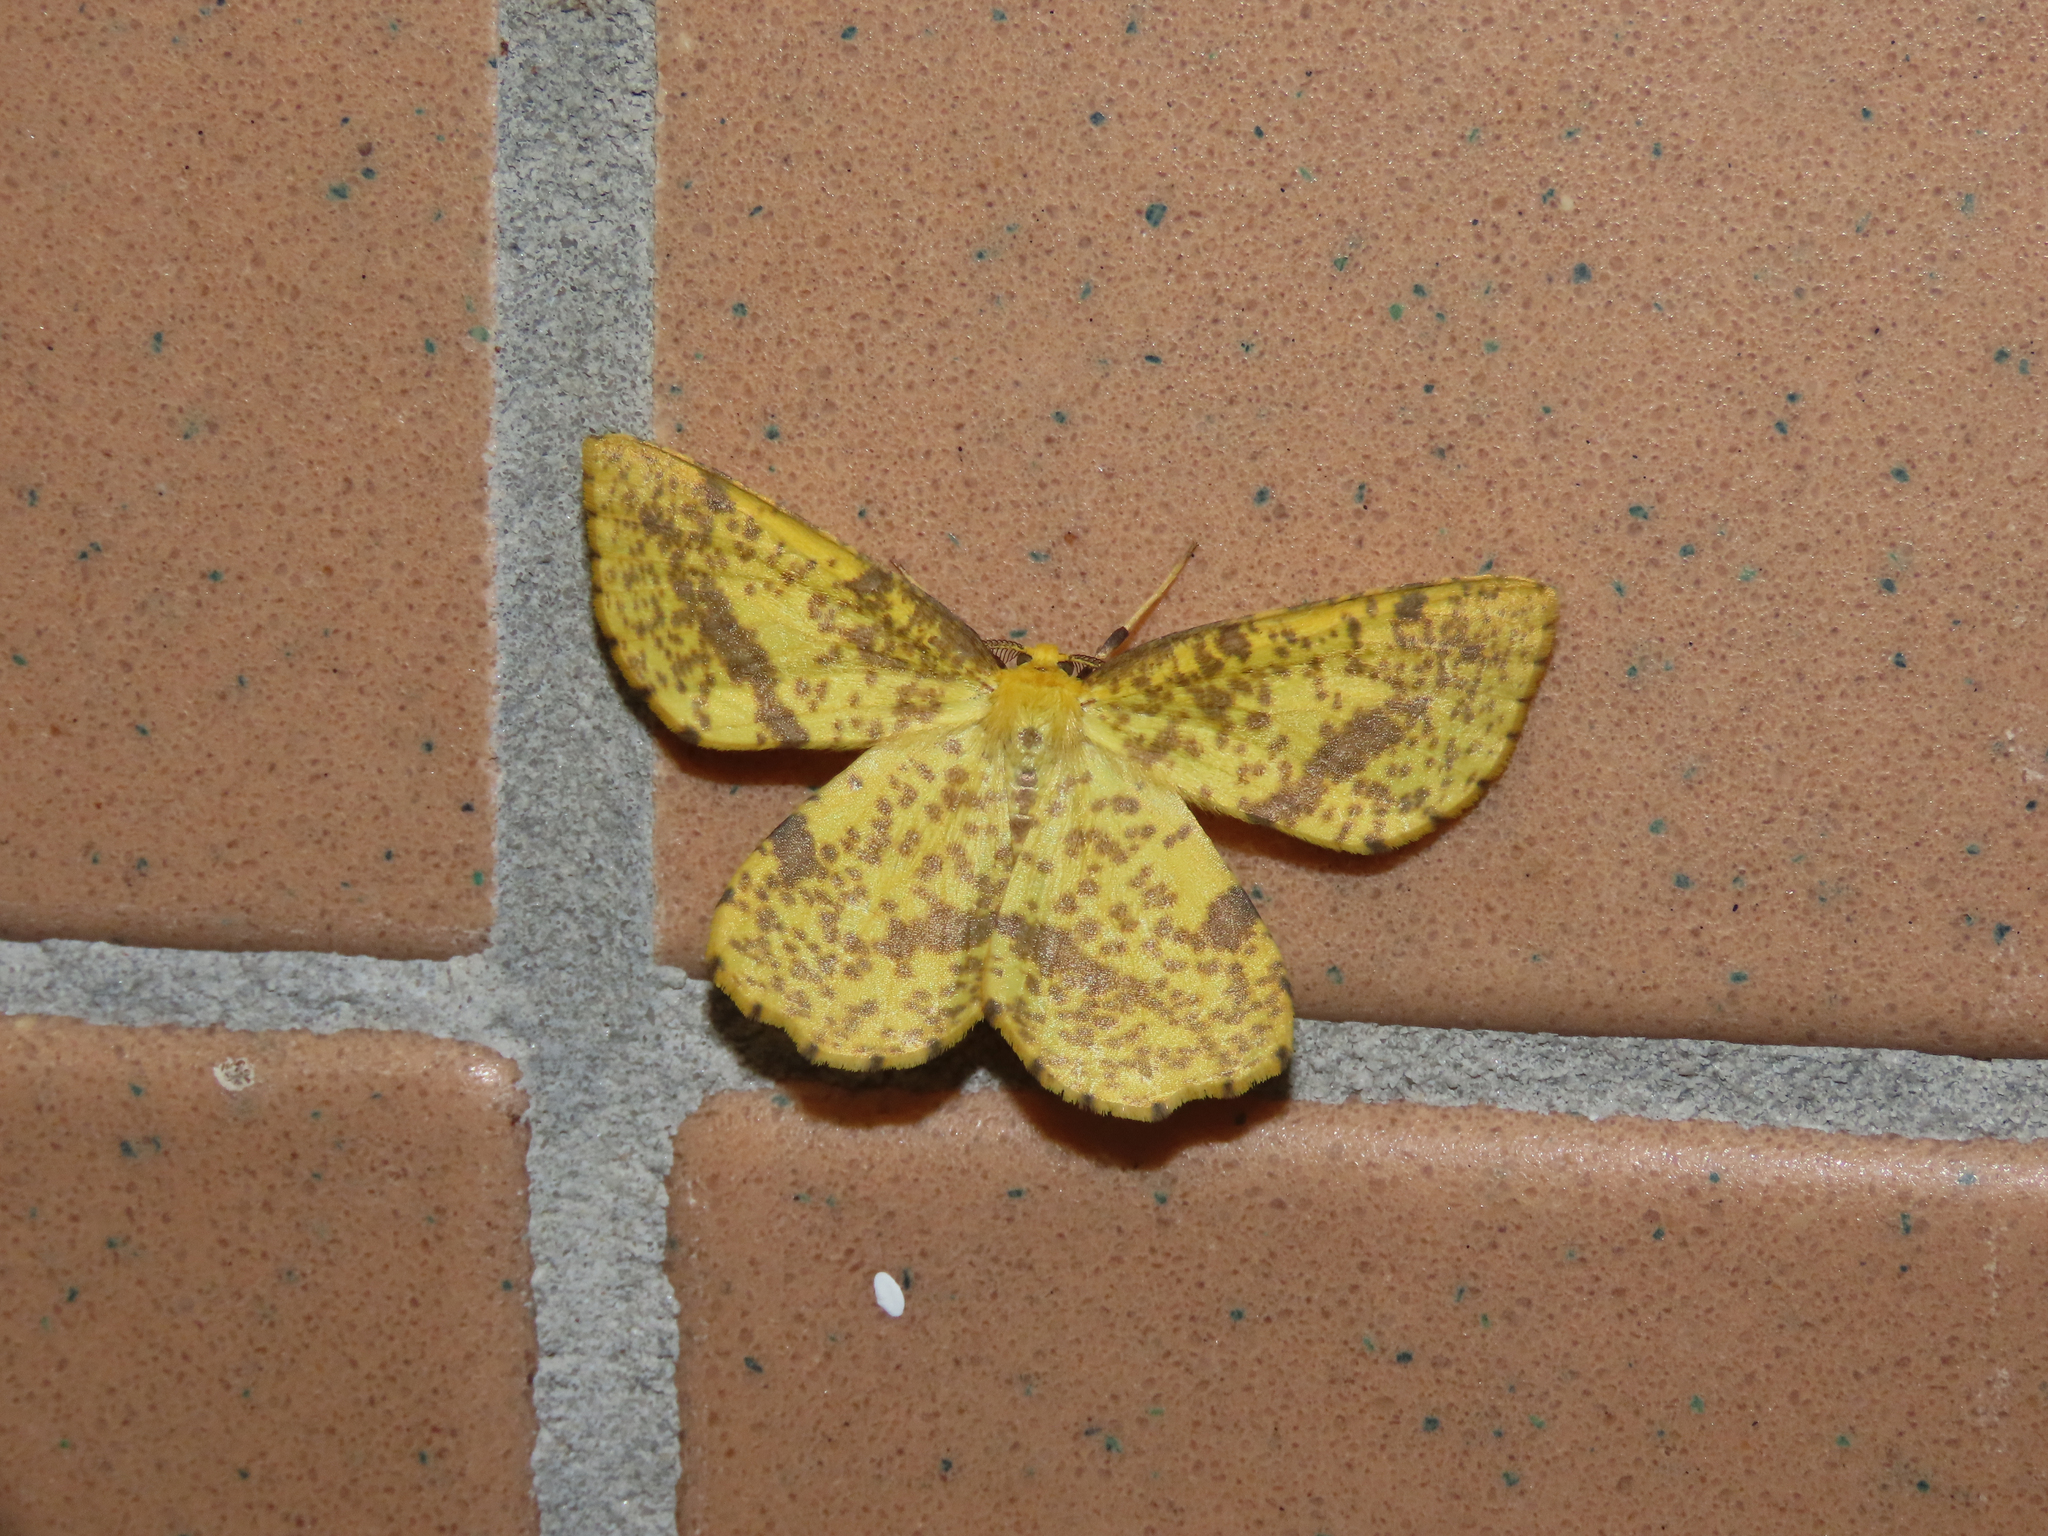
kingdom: Animalia
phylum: Arthropoda
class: Insecta
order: Lepidoptera
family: Geometridae
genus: Xanthotype
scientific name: Xanthotype
